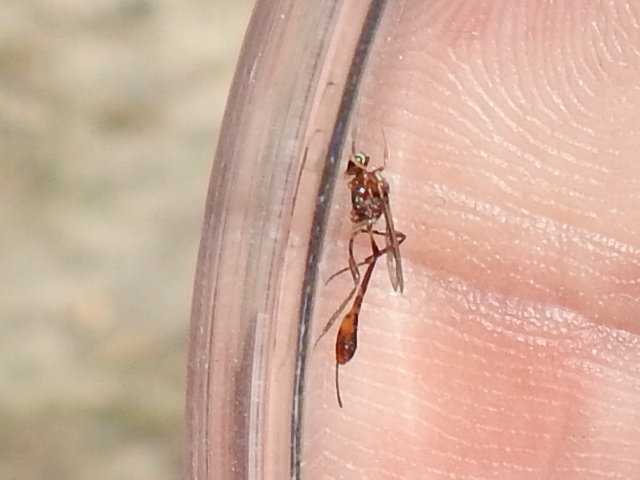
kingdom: Animalia
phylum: Arthropoda
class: Insecta
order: Hymenoptera
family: Ichneumonidae
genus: Anomalon
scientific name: Anomalon
